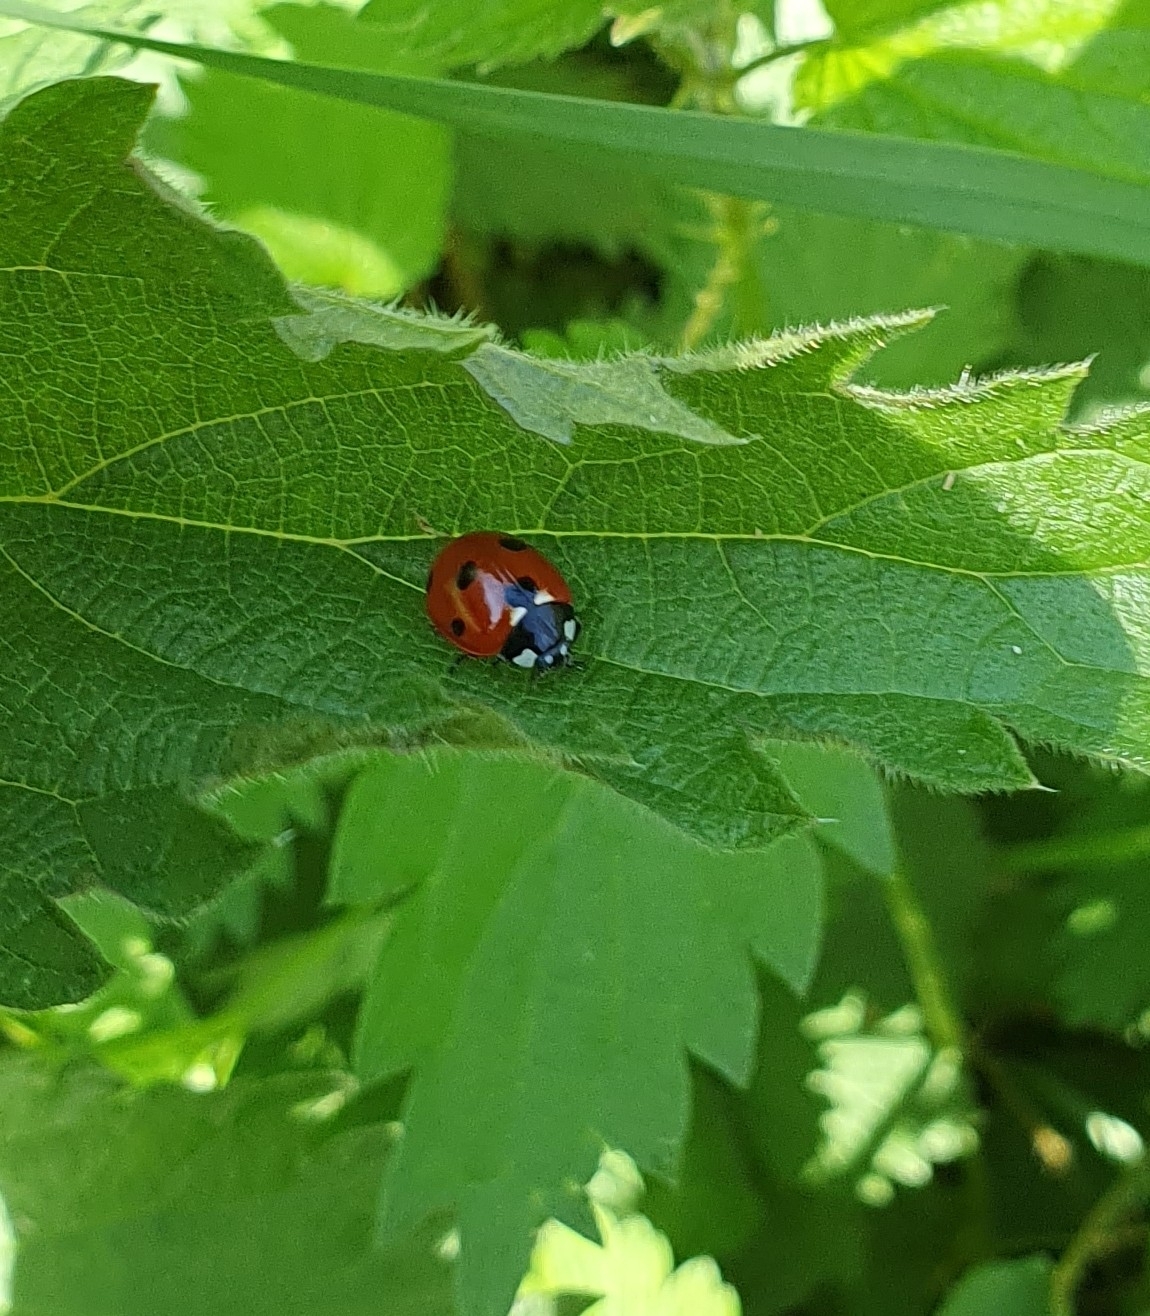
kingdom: Animalia
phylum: Arthropoda
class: Insecta
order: Coleoptera
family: Coccinellidae
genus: Coccinella
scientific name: Coccinella septempunctata
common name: Sevenspotted lady beetle
